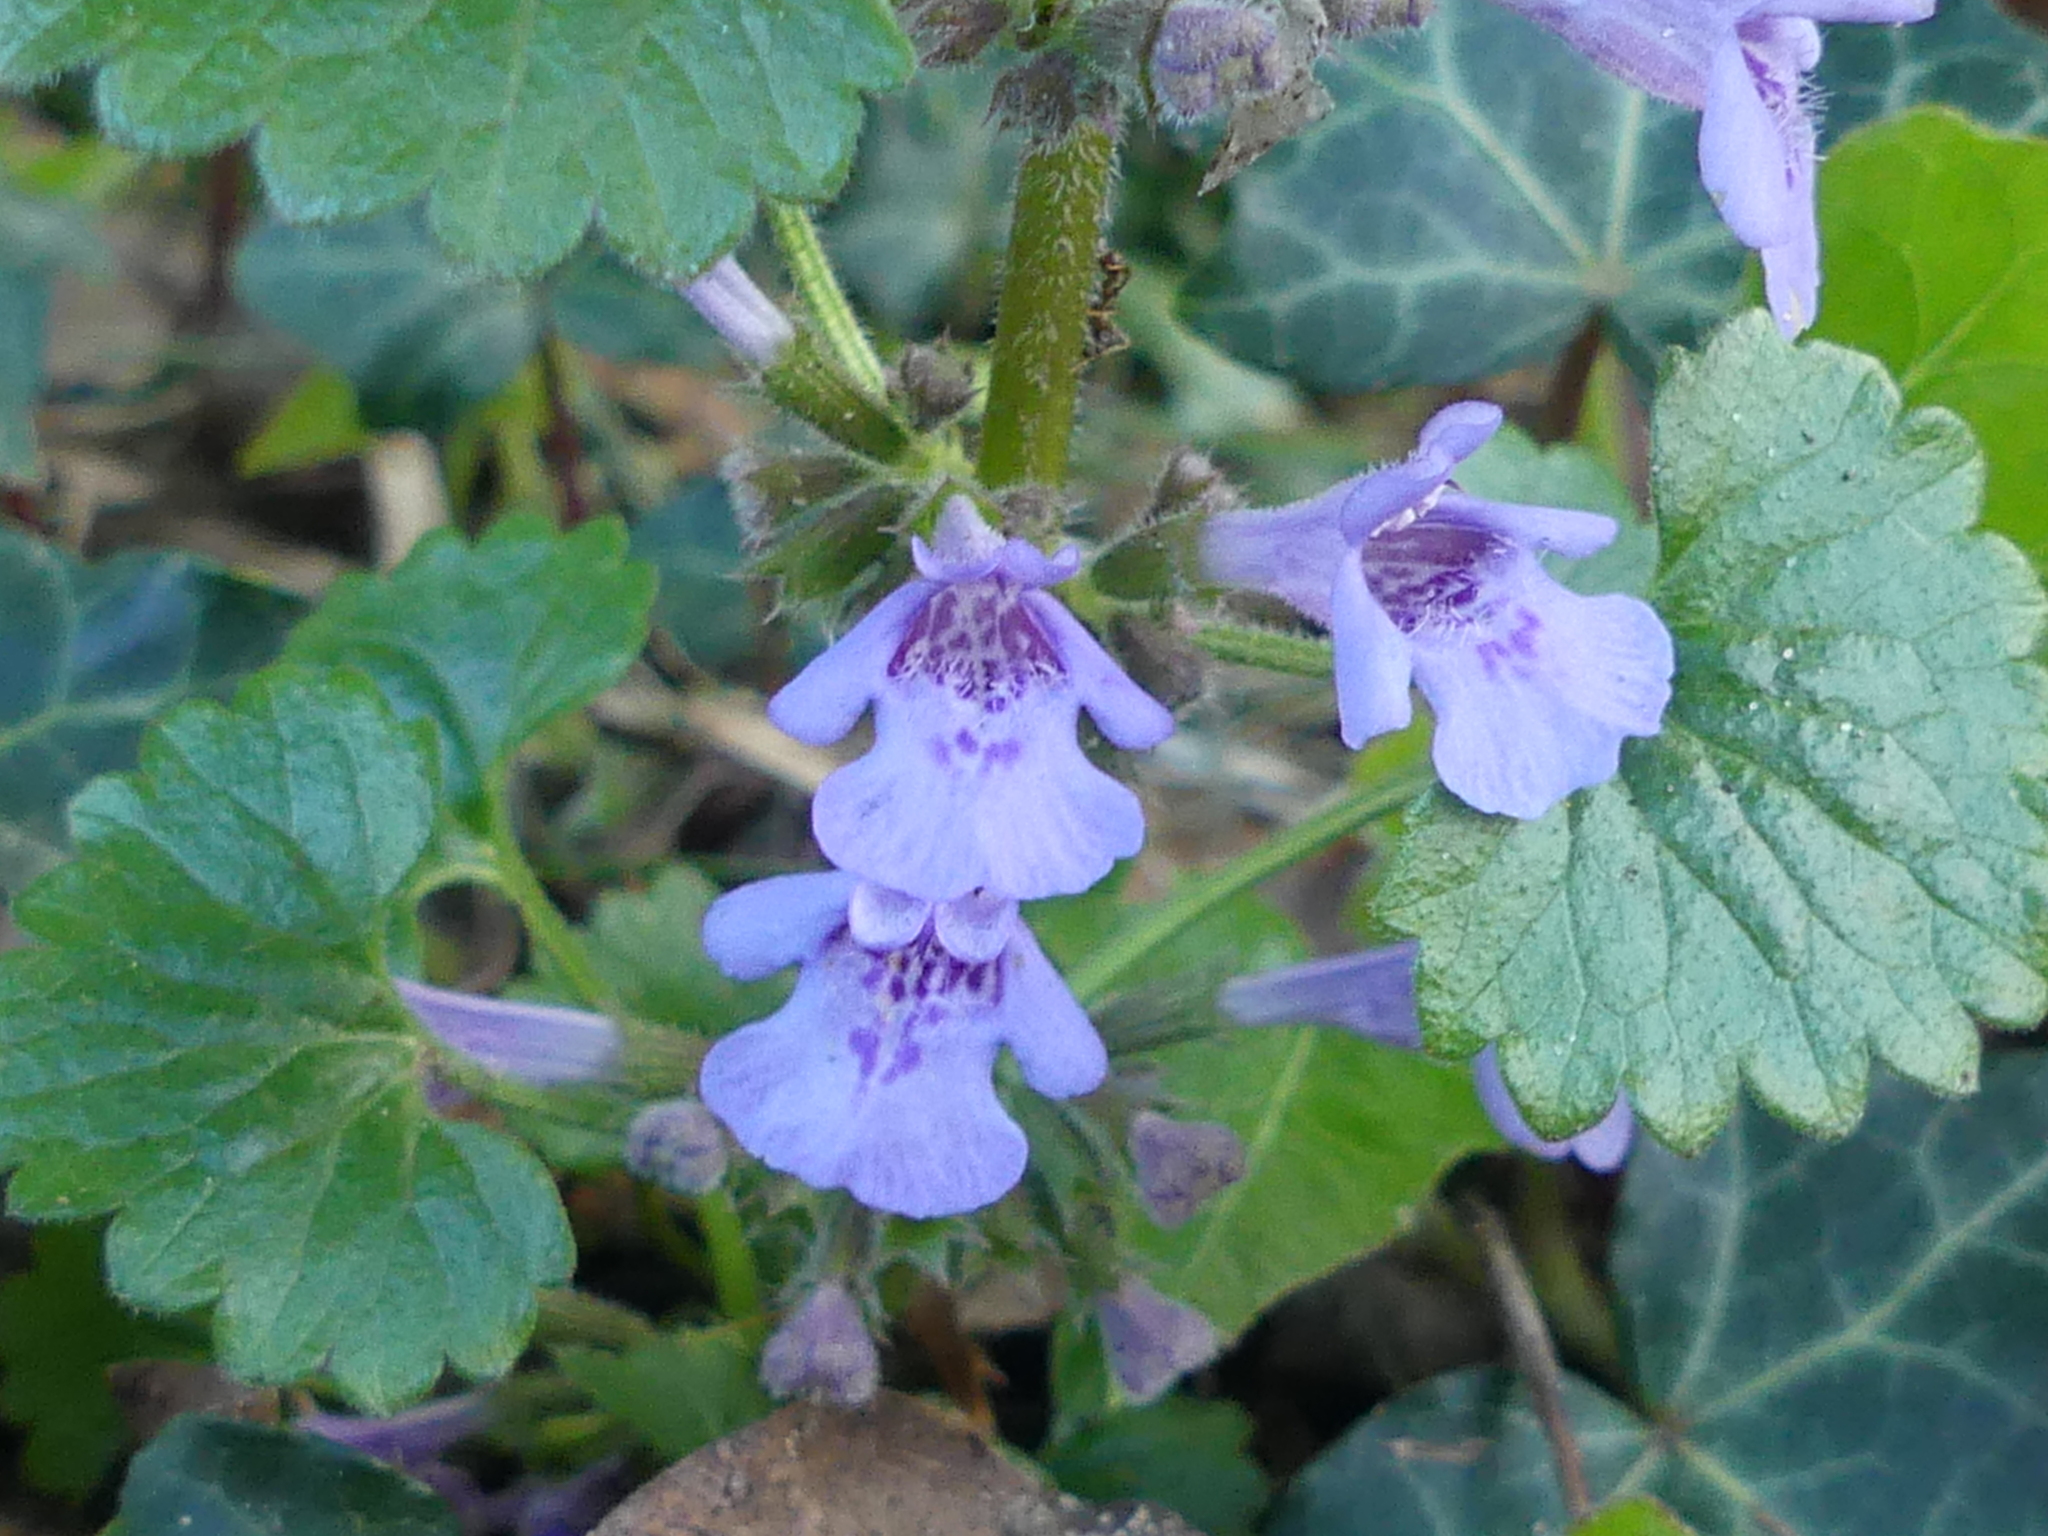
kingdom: Plantae
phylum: Tracheophyta
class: Magnoliopsida
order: Lamiales
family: Lamiaceae
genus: Glechoma
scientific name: Glechoma hederacea
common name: Ground ivy
